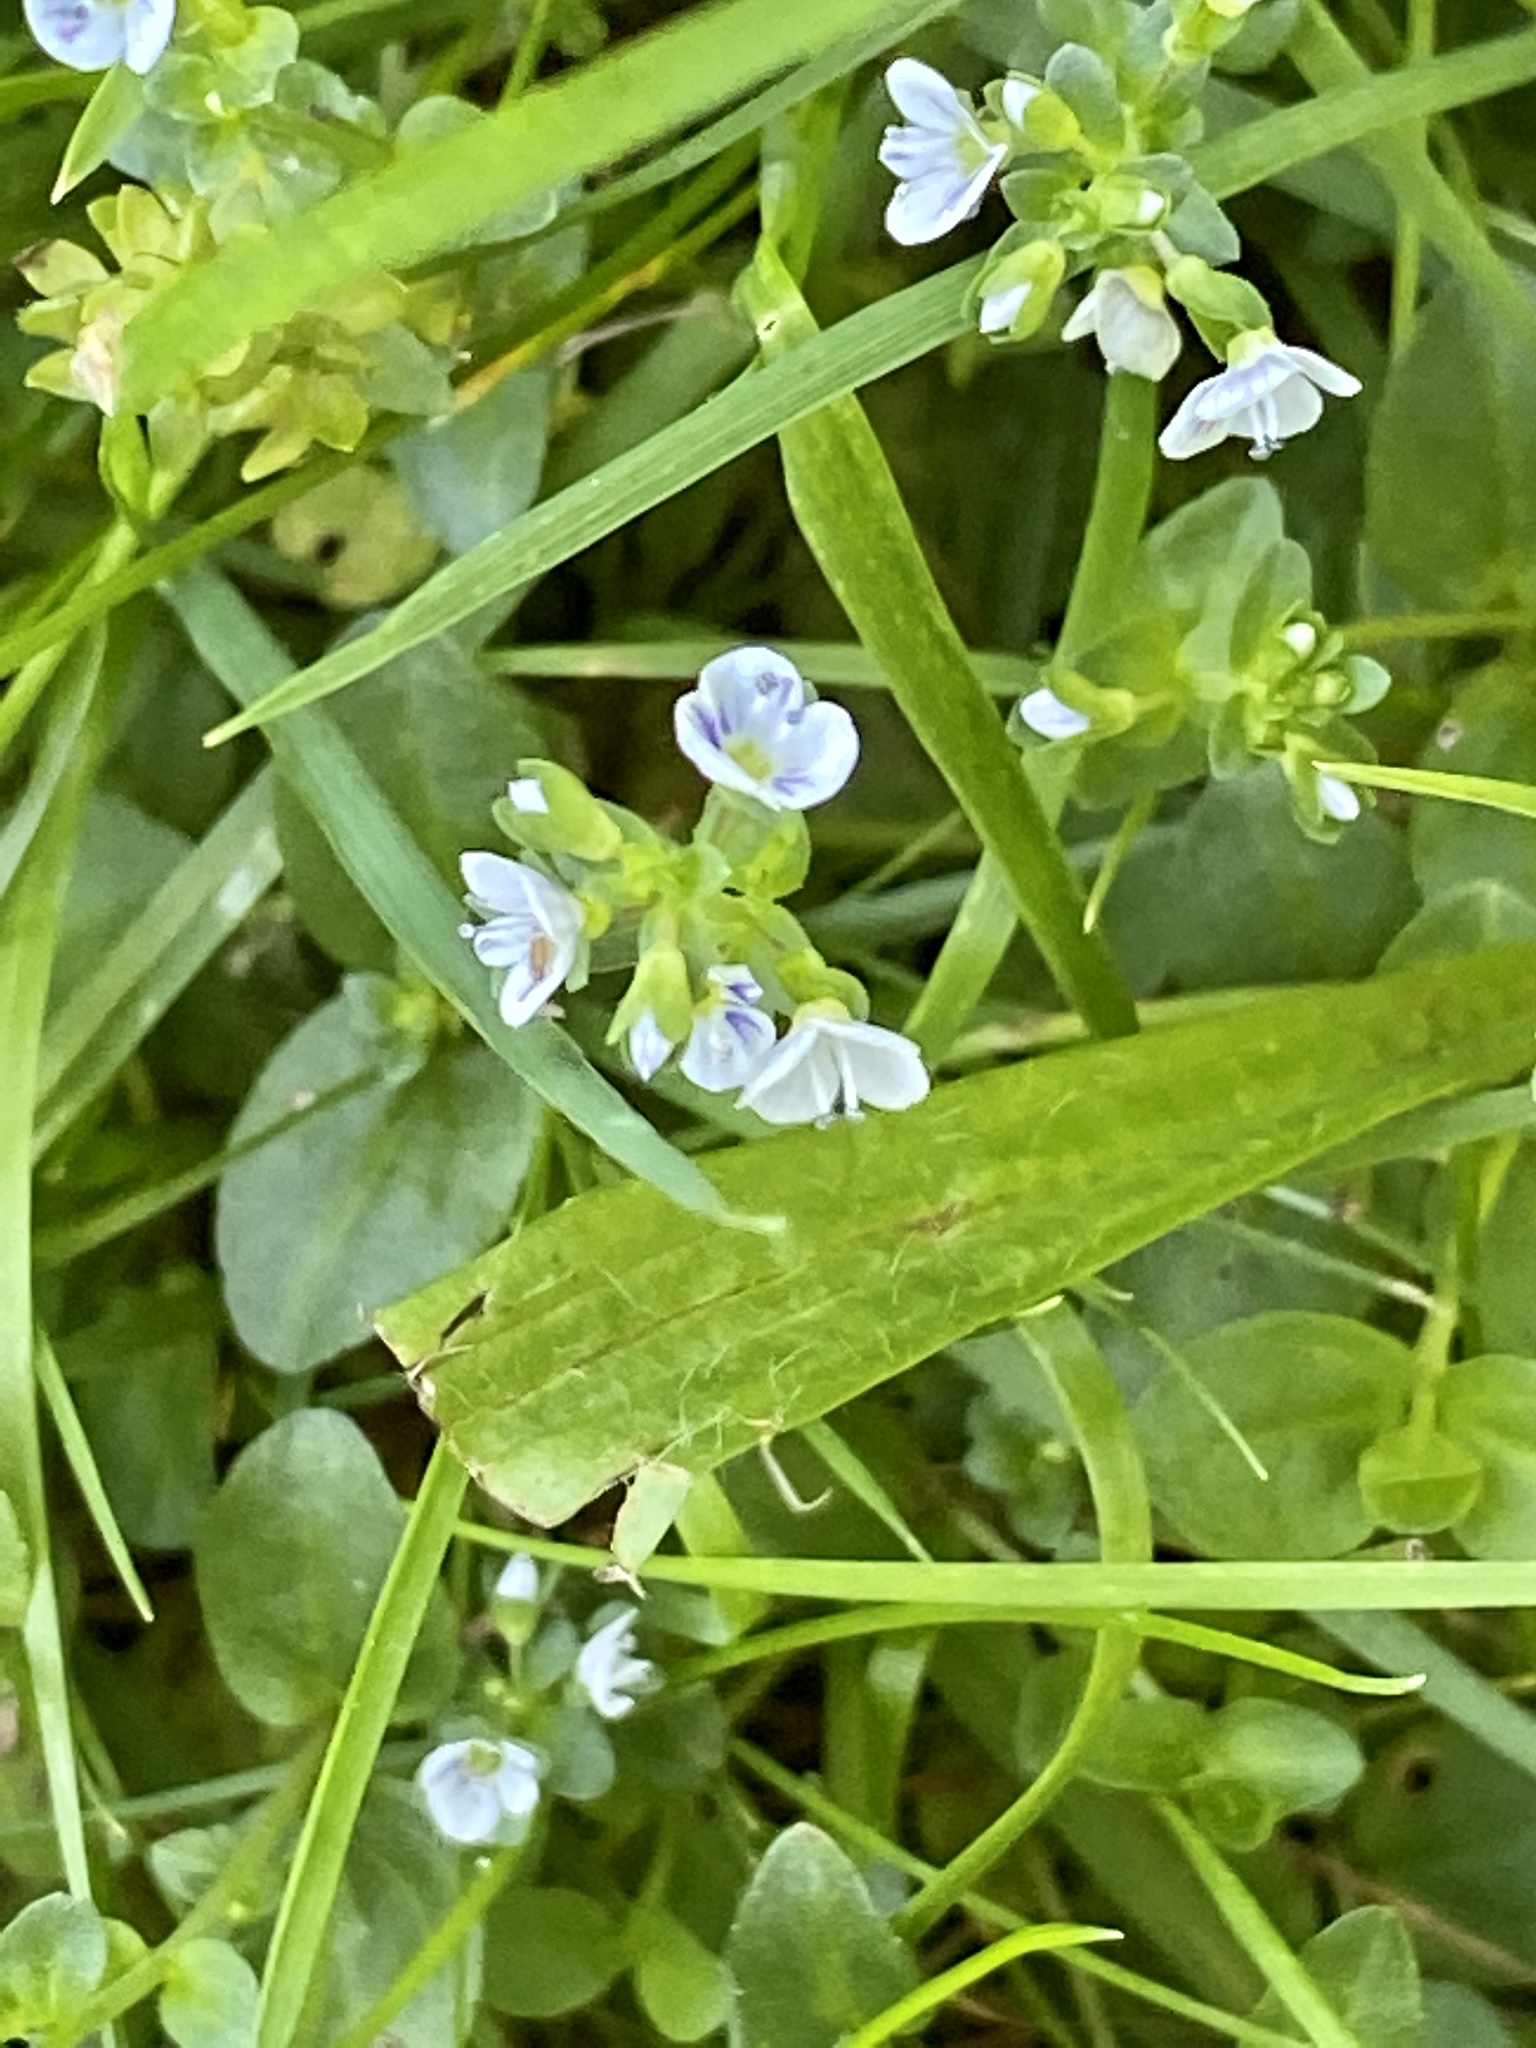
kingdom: Plantae
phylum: Tracheophyta
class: Magnoliopsida
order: Lamiales
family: Plantaginaceae
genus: Veronica
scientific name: Veronica serpyllifolia
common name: Thyme-leaved speedwell
